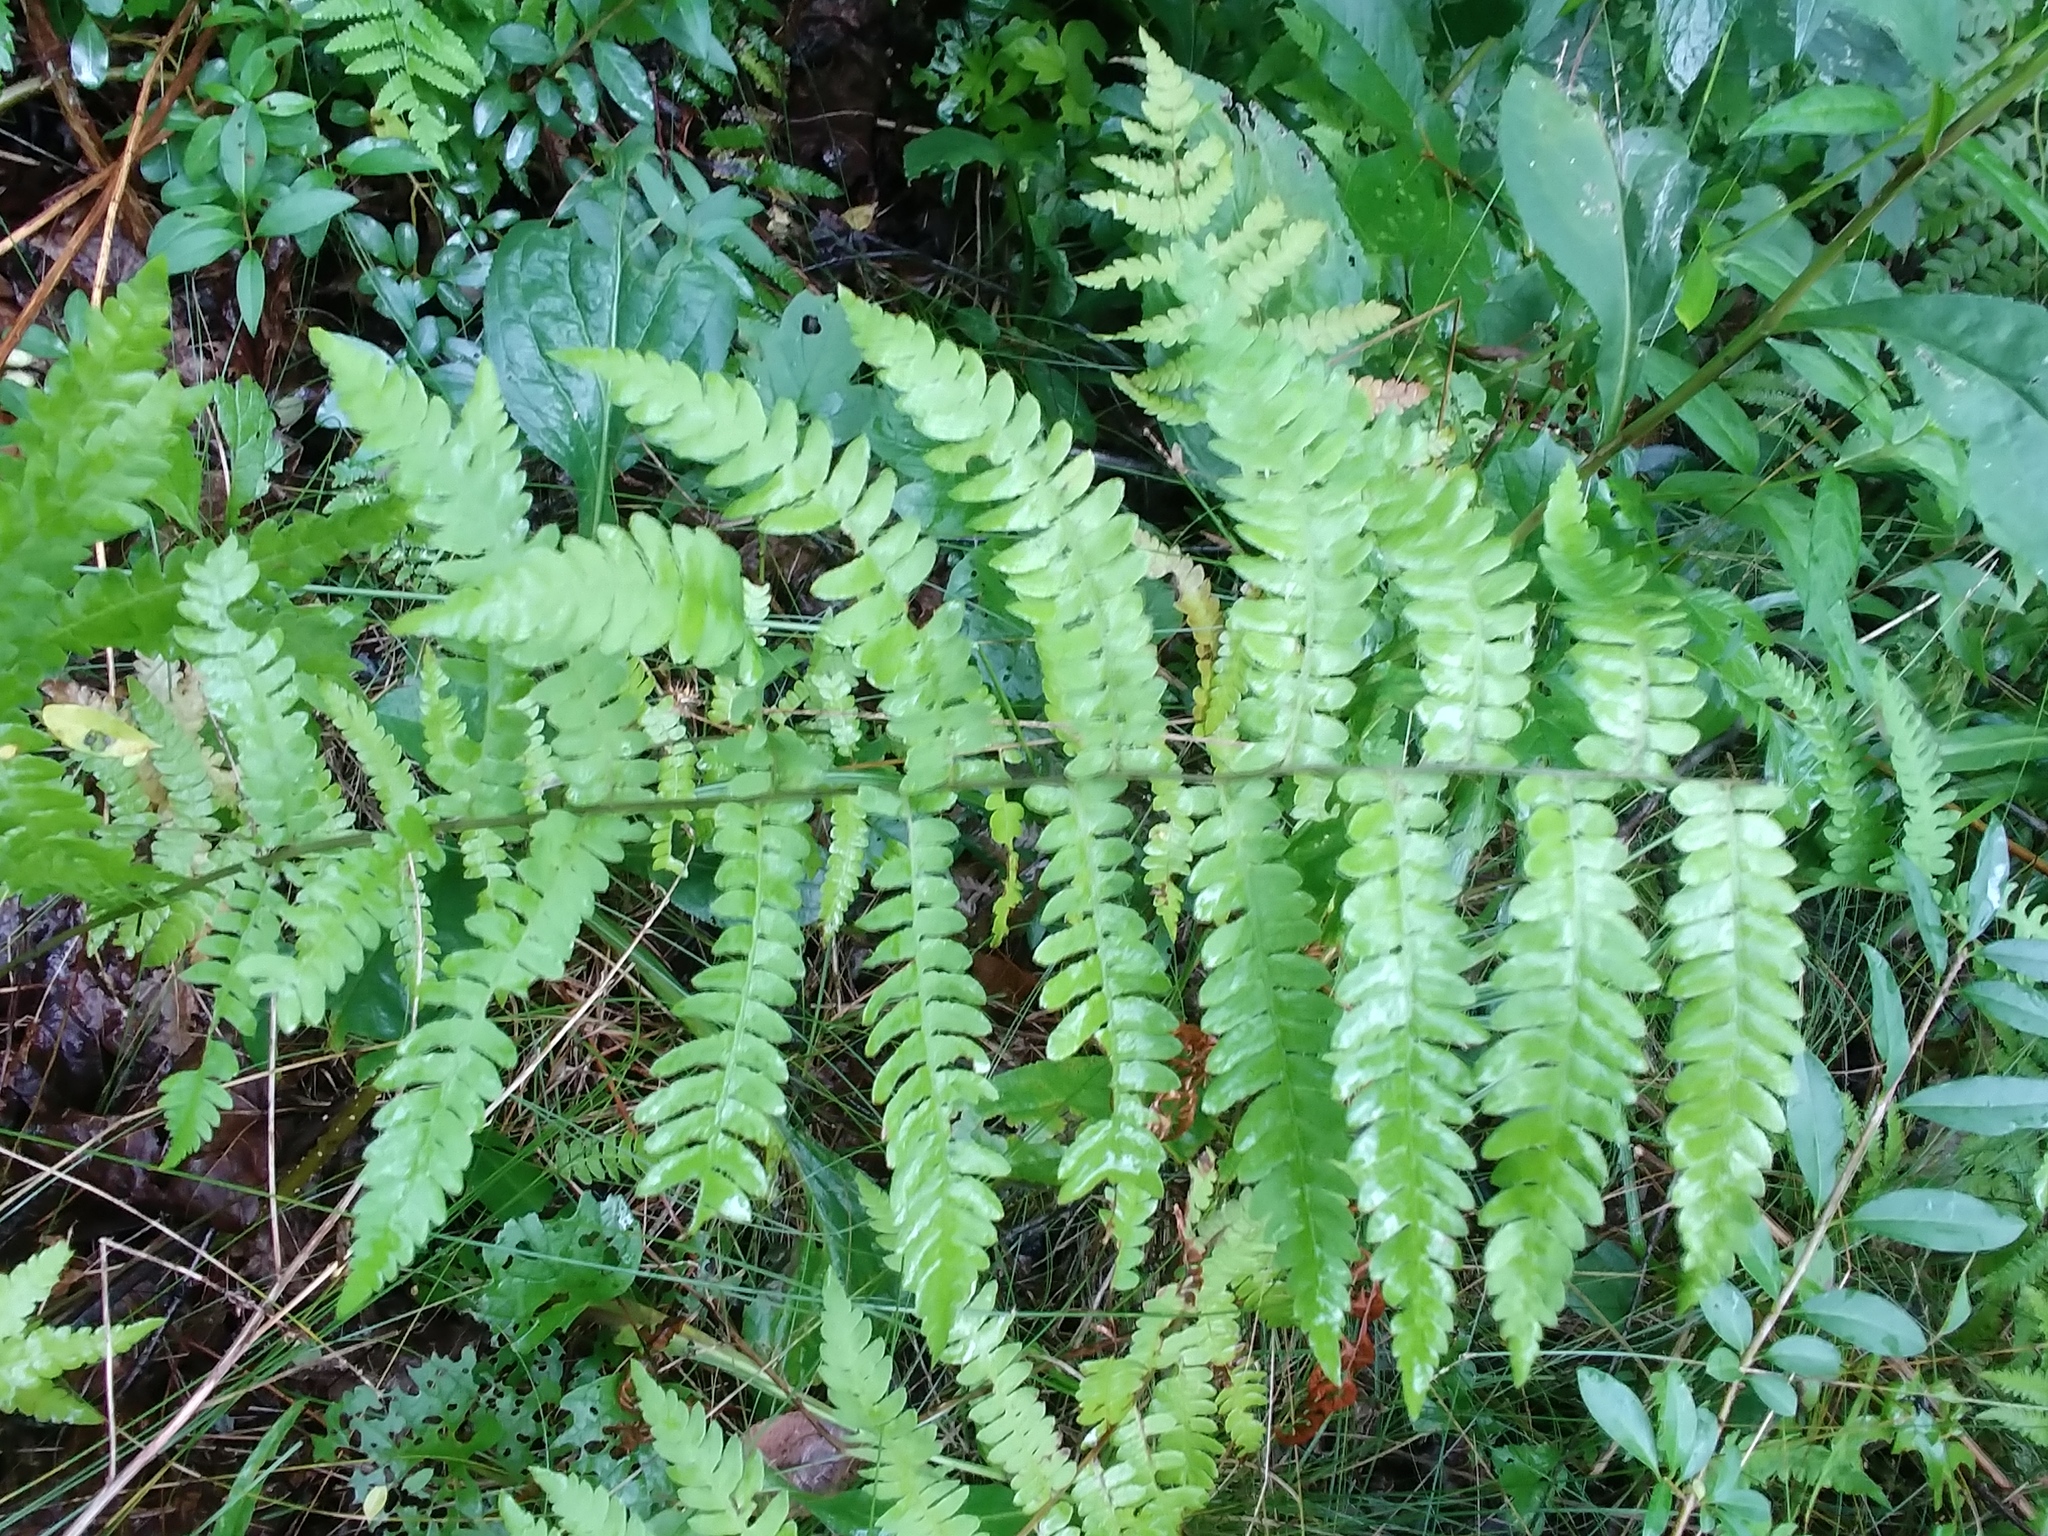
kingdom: Plantae
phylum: Tracheophyta
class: Polypodiopsida
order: Polypodiales
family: Thelypteridaceae
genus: Thelypteris
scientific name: Thelypteris palustris
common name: Marsh fern
